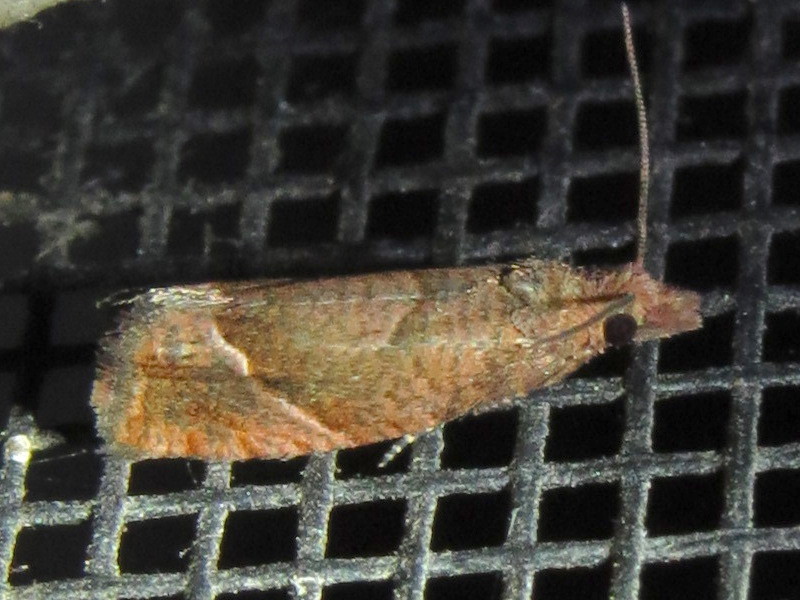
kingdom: Animalia
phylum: Arthropoda
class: Insecta
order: Lepidoptera
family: Tortricidae
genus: Pelochrista
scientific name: Pelochrista derelicta
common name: Derelict pelochrista moth
